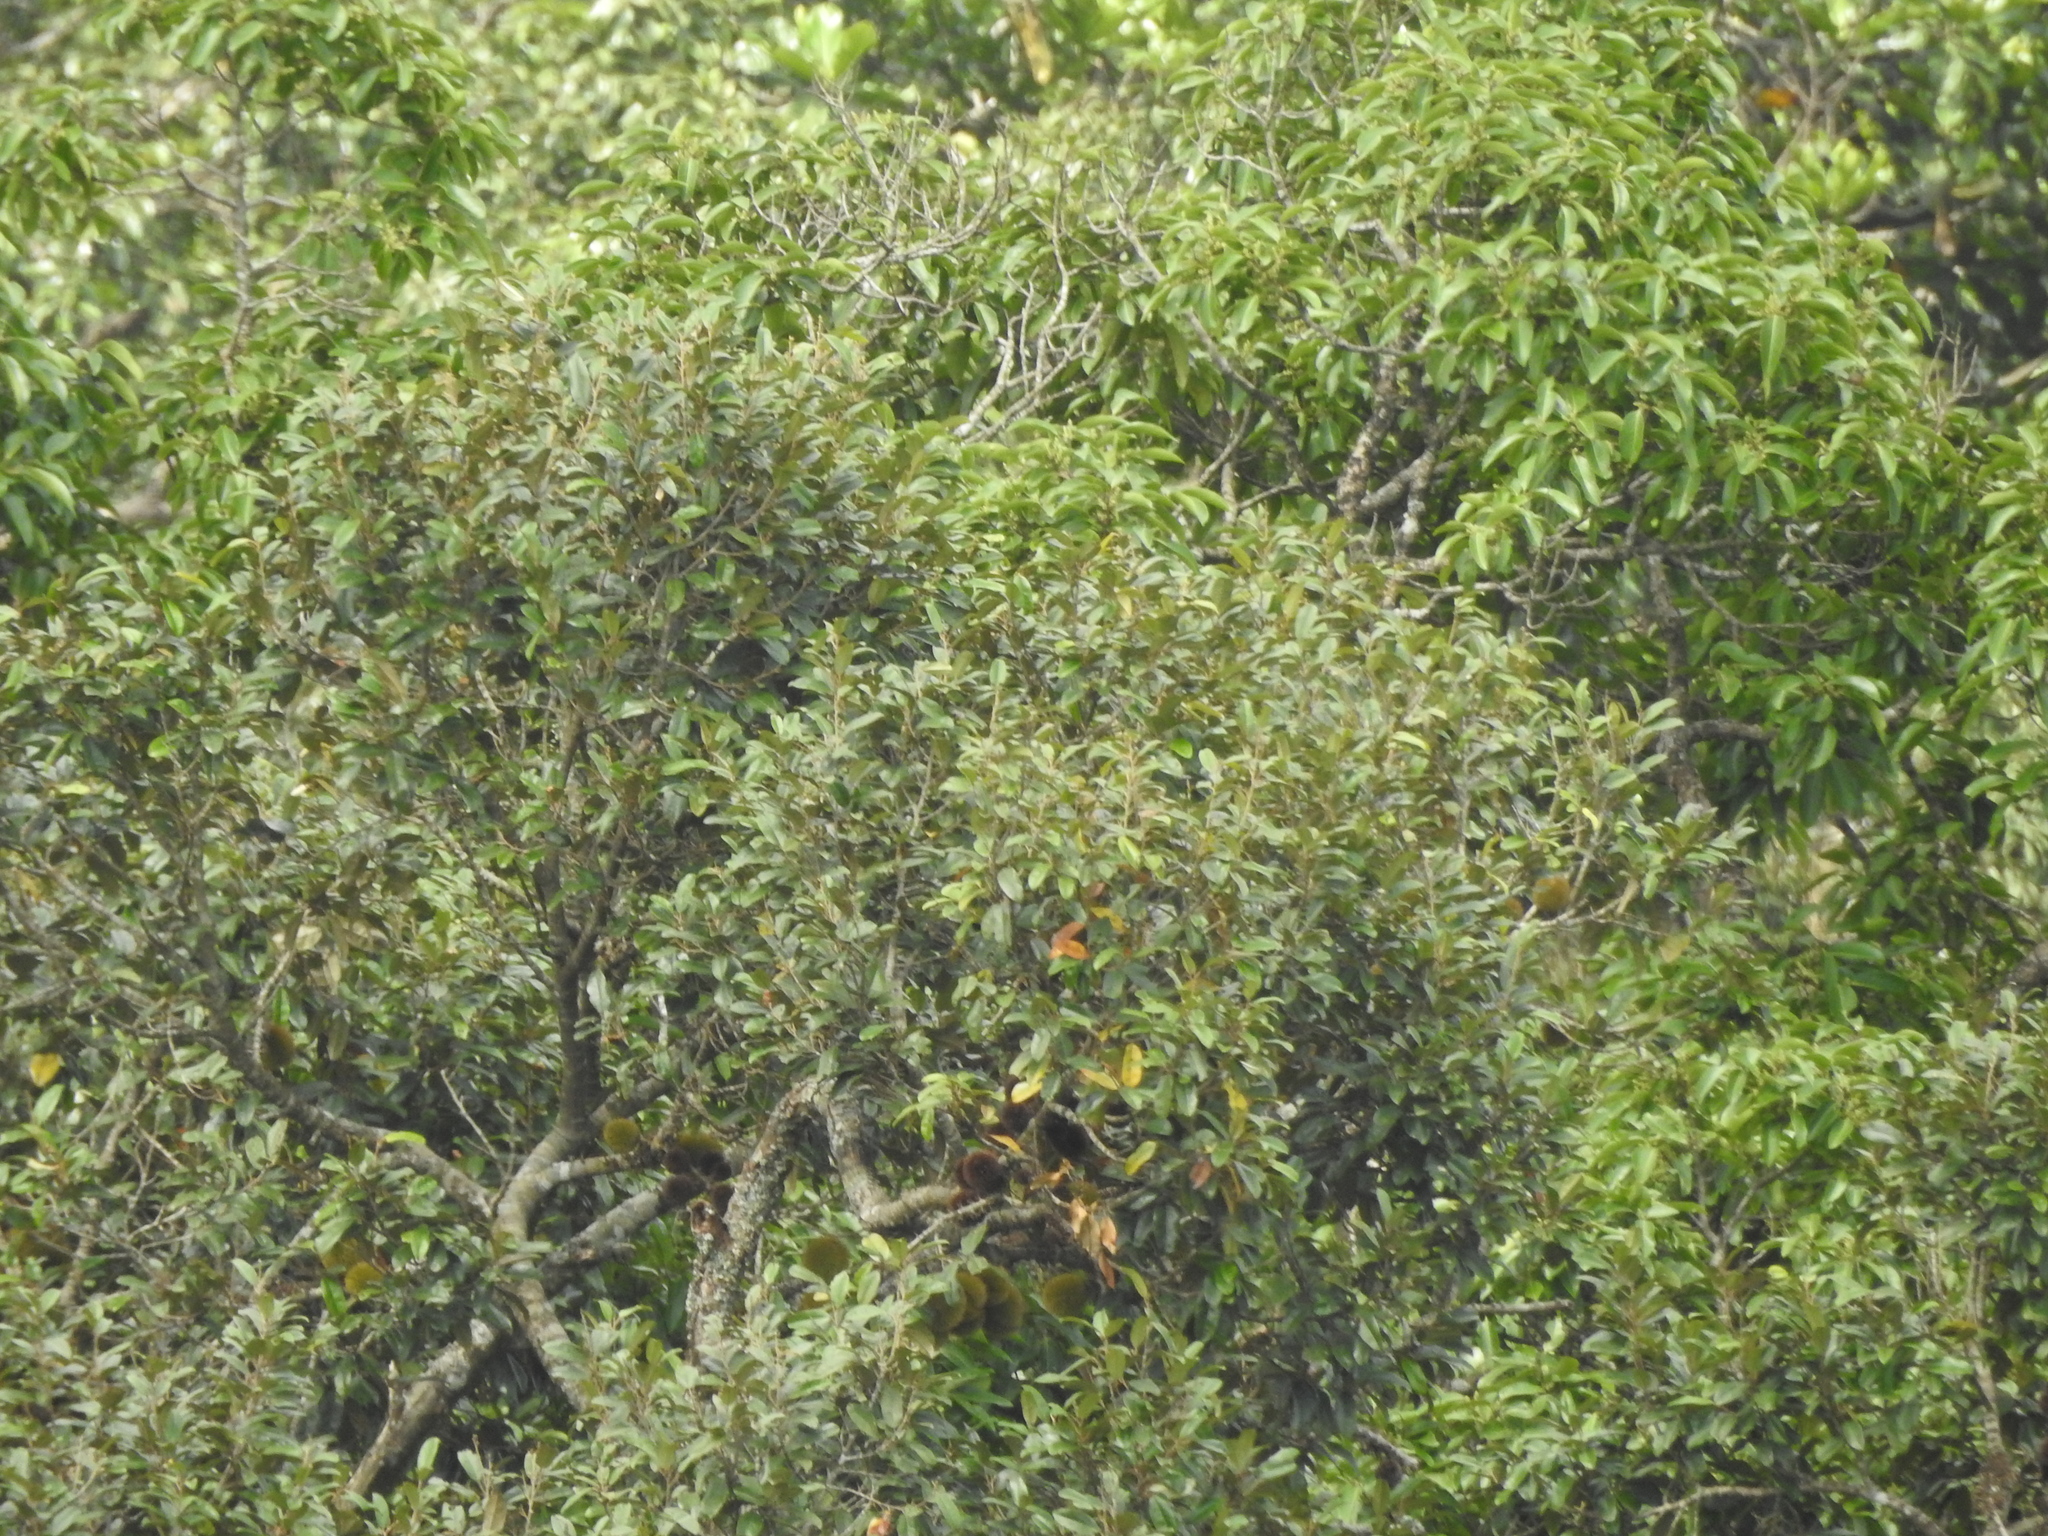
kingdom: Plantae
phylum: Tracheophyta
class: Magnoliopsida
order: Malvales
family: Malvaceae
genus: Cullenia
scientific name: Cullenia exarillata
